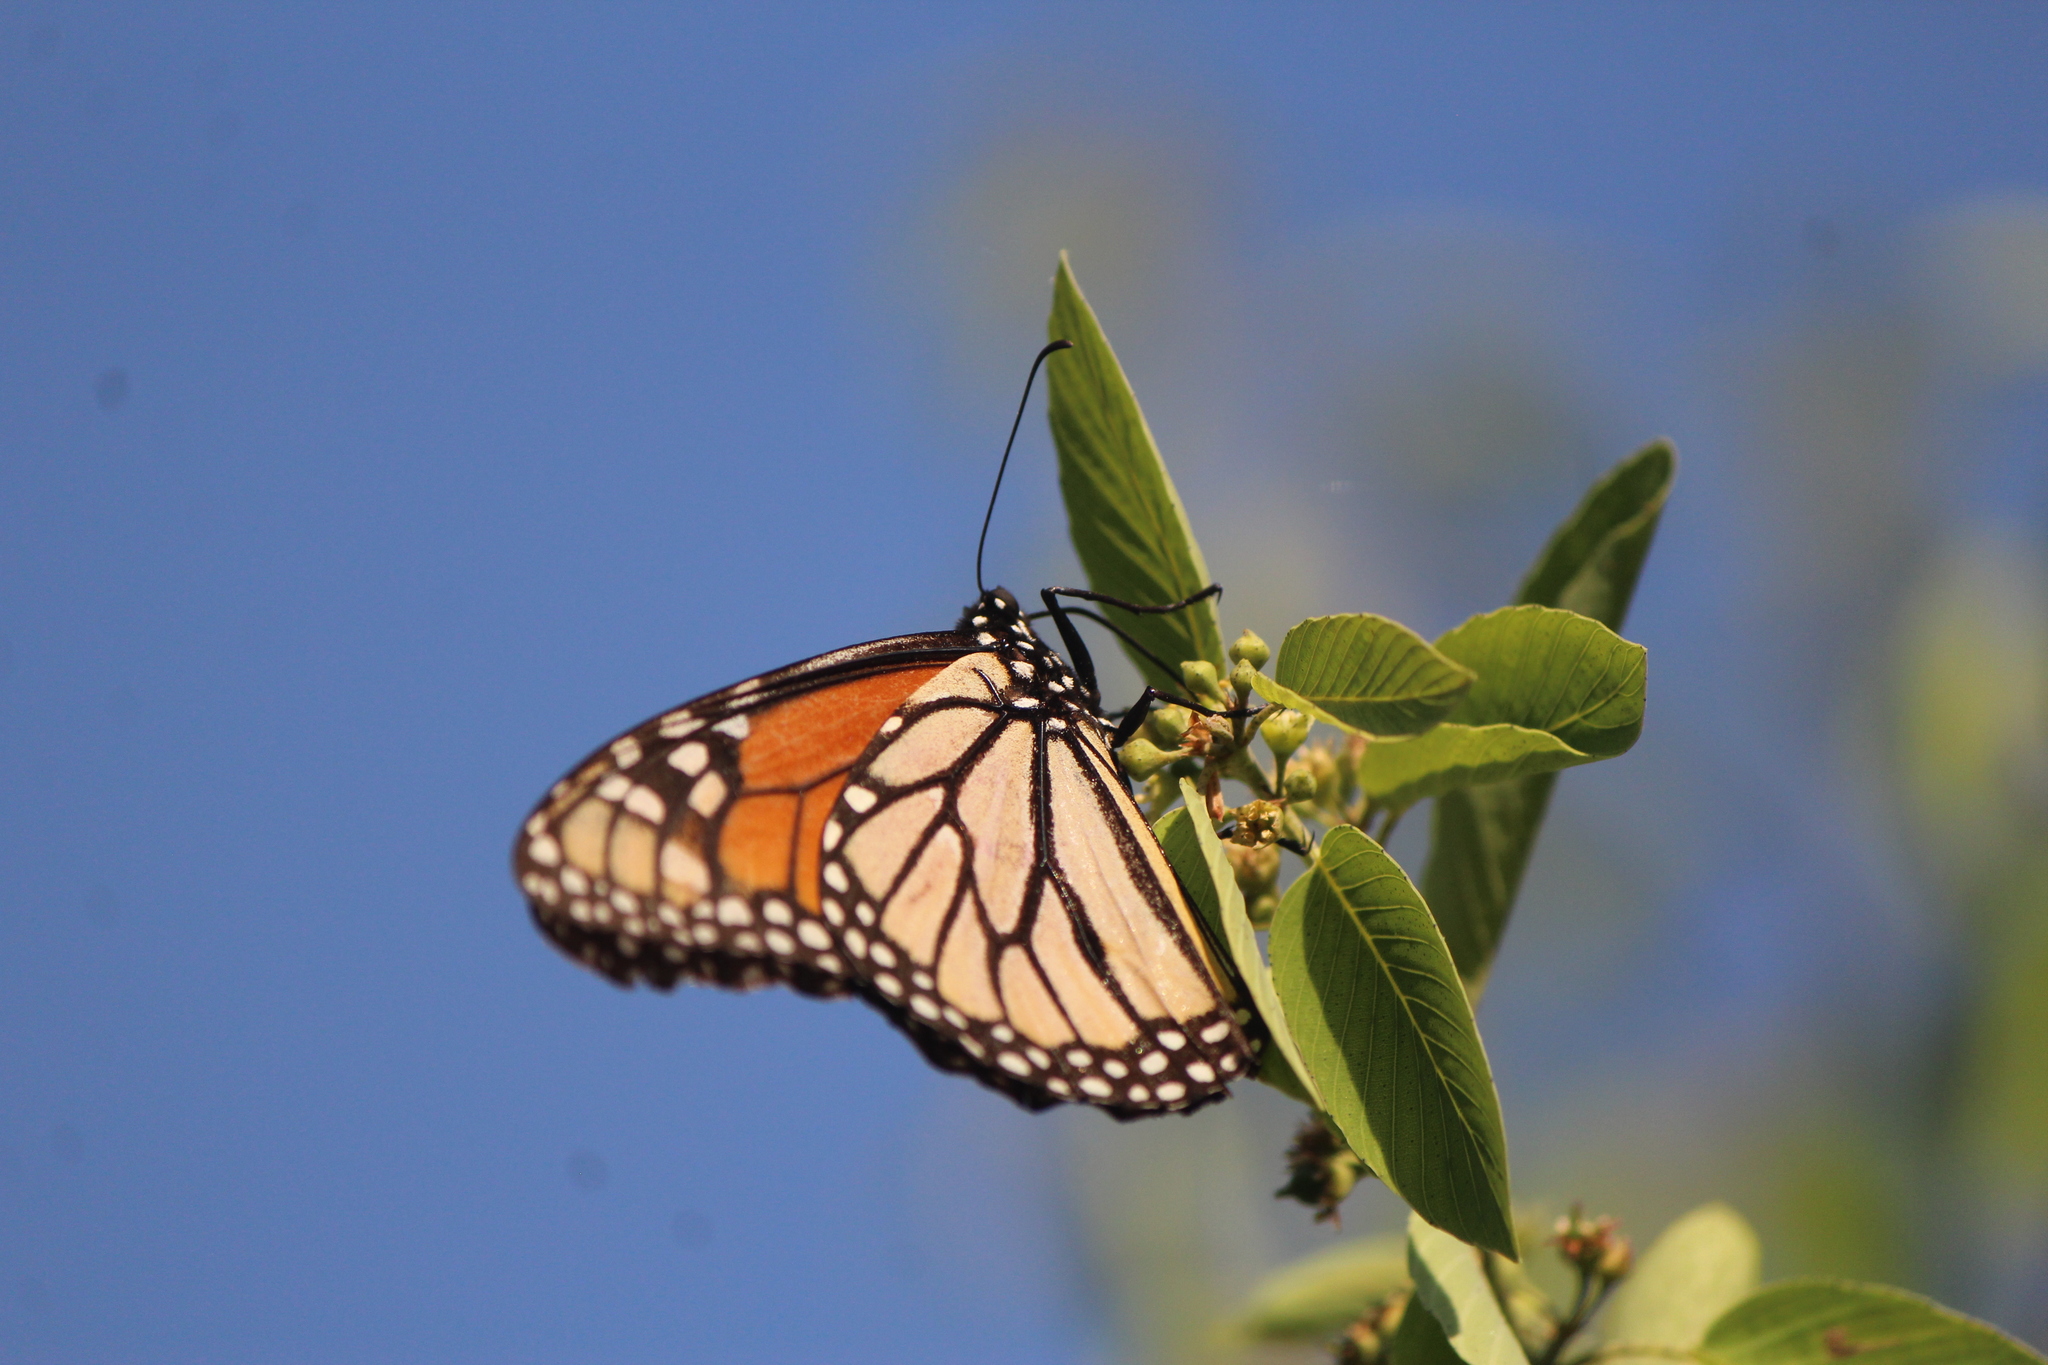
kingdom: Animalia
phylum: Arthropoda
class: Insecta
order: Lepidoptera
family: Nymphalidae
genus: Danaus
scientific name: Danaus plexippus
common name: Monarch
